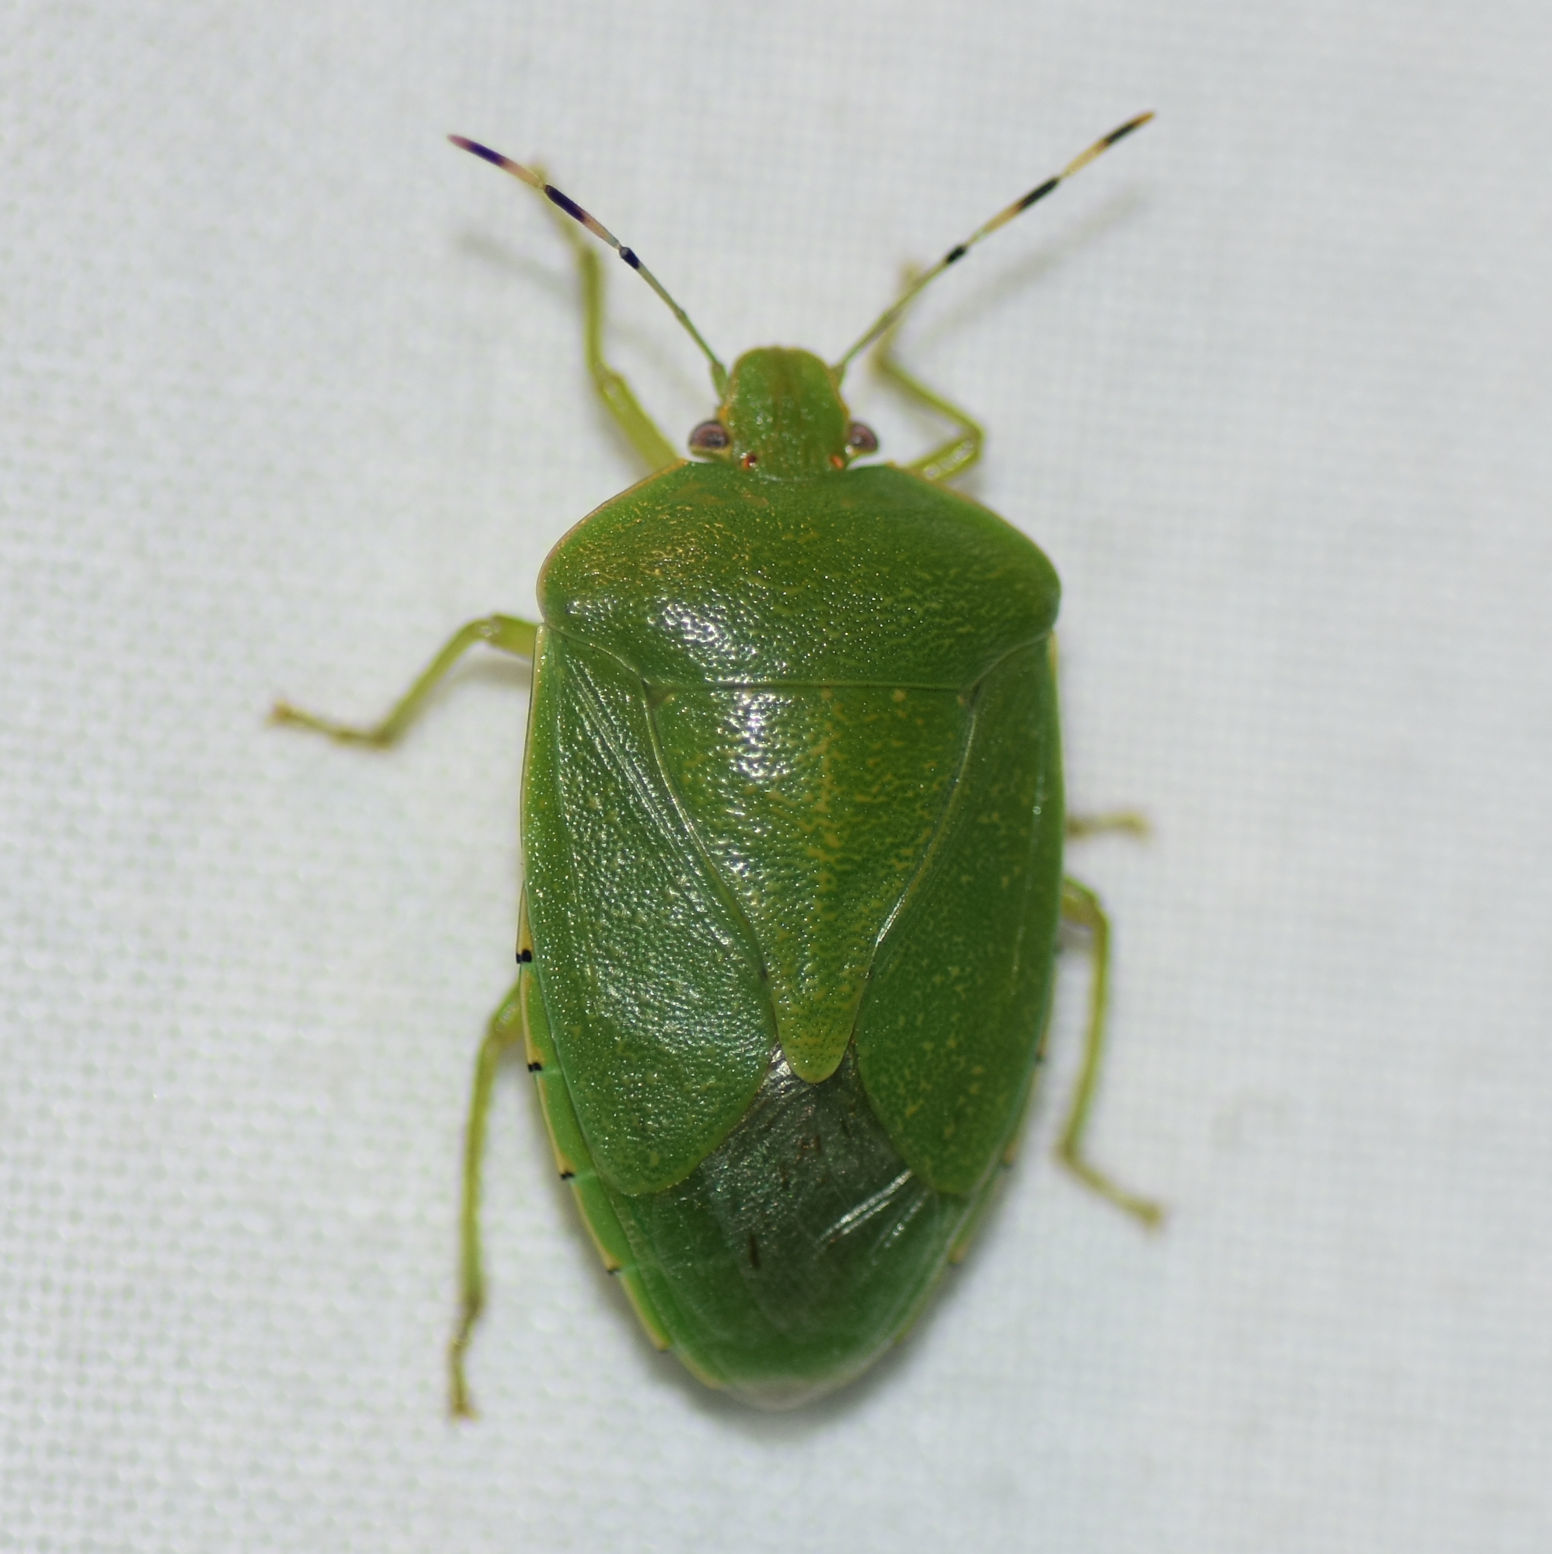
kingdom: Animalia
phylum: Arthropoda
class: Insecta
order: Hemiptera
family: Pentatomidae
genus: Chinavia
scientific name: Chinavia hilaris
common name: Green stink bug
